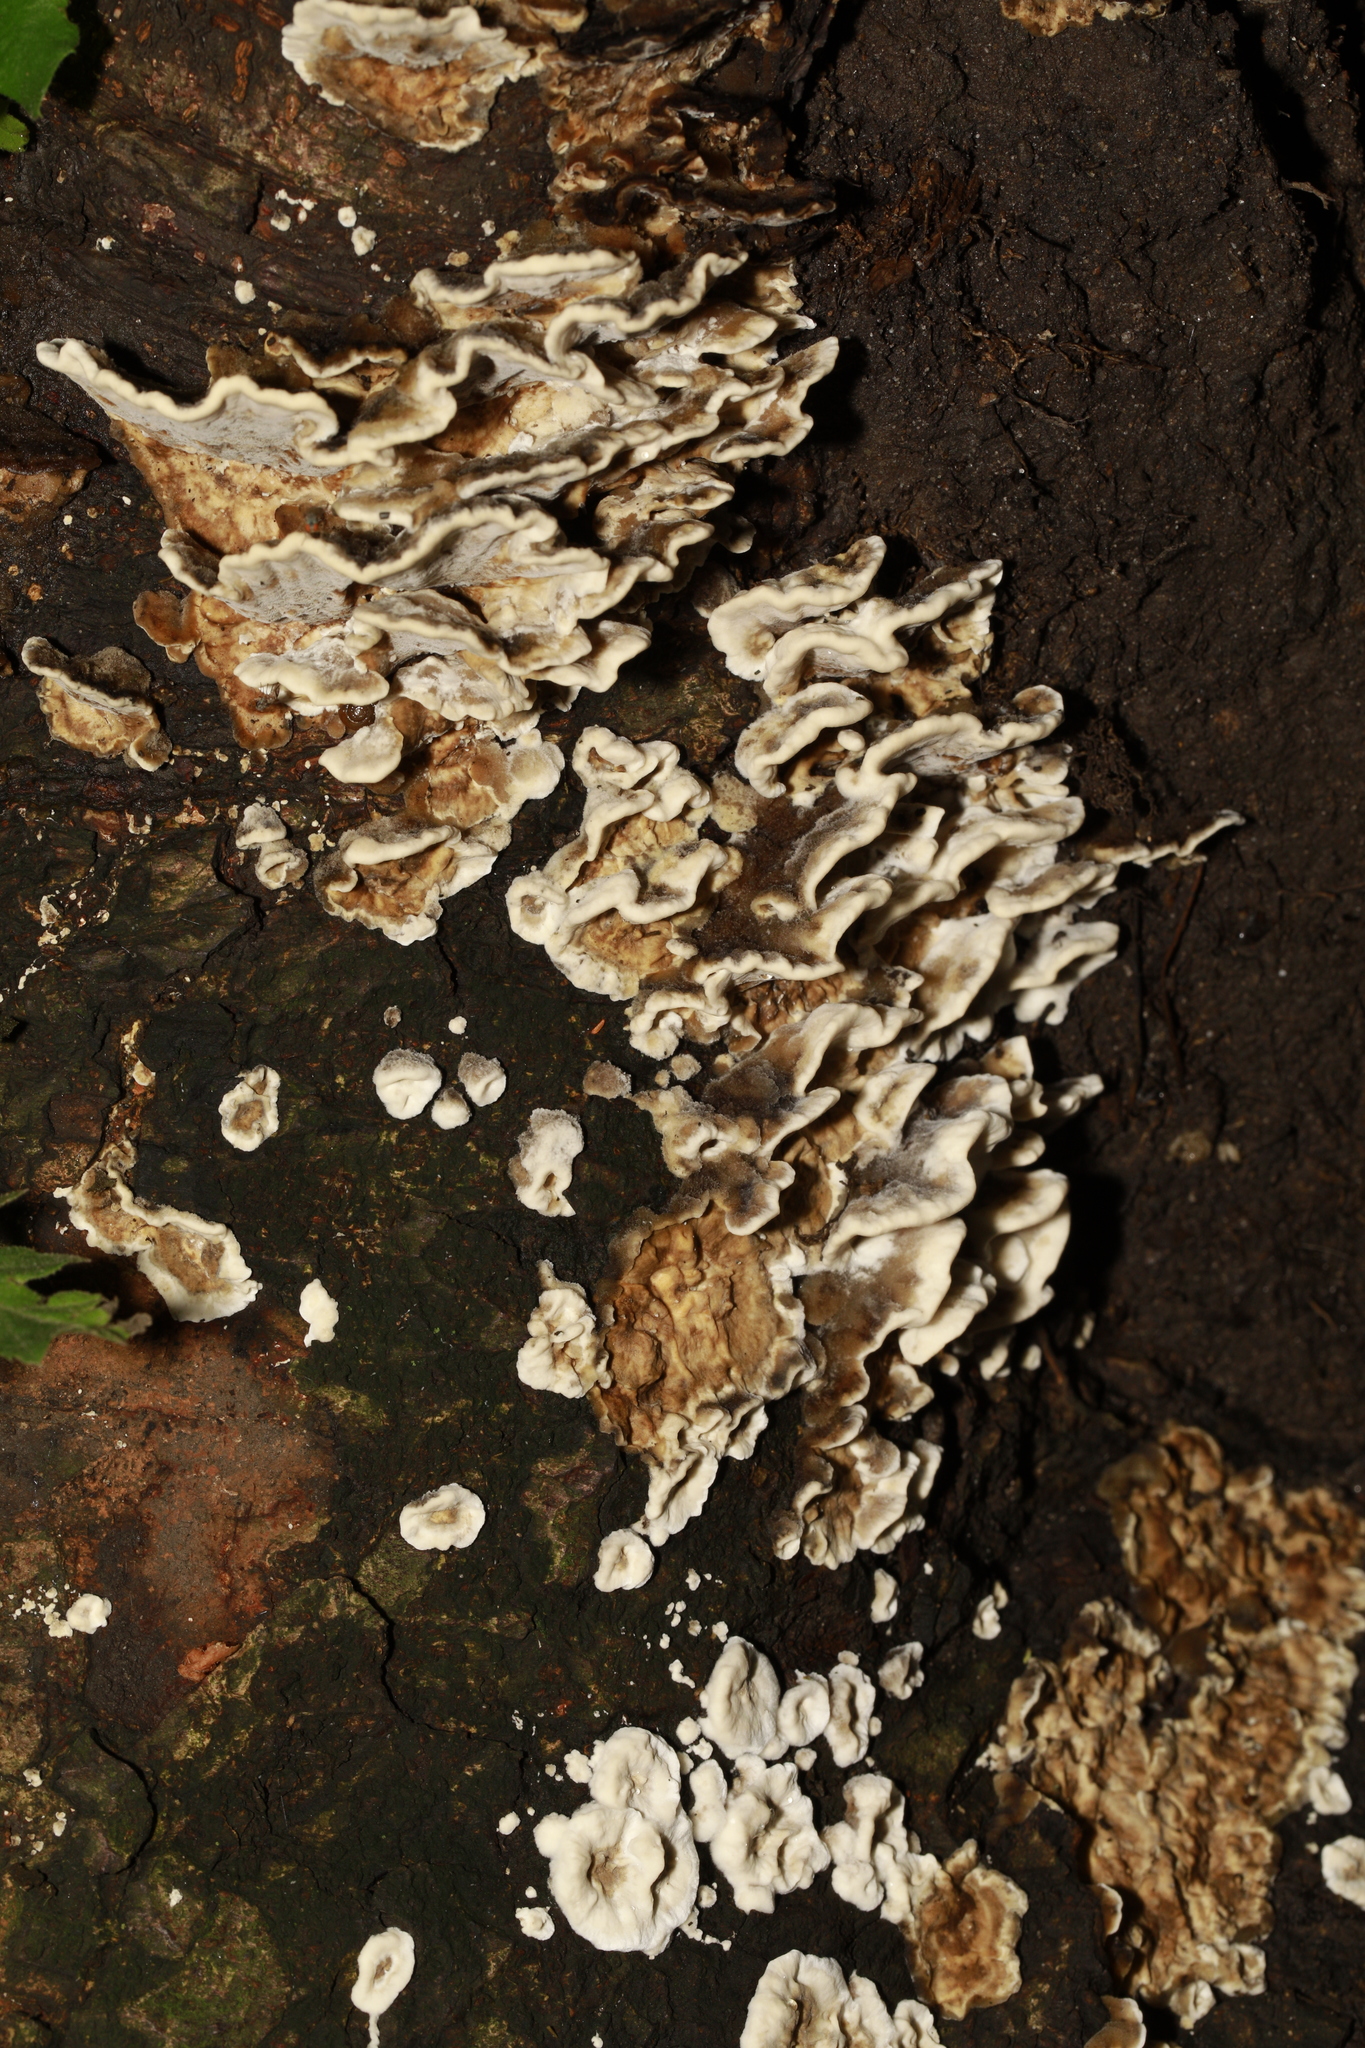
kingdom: Fungi
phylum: Basidiomycota
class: Agaricomycetes
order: Polyporales
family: Phanerochaetaceae
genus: Bjerkandera
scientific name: Bjerkandera adusta
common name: Smoky bracket
